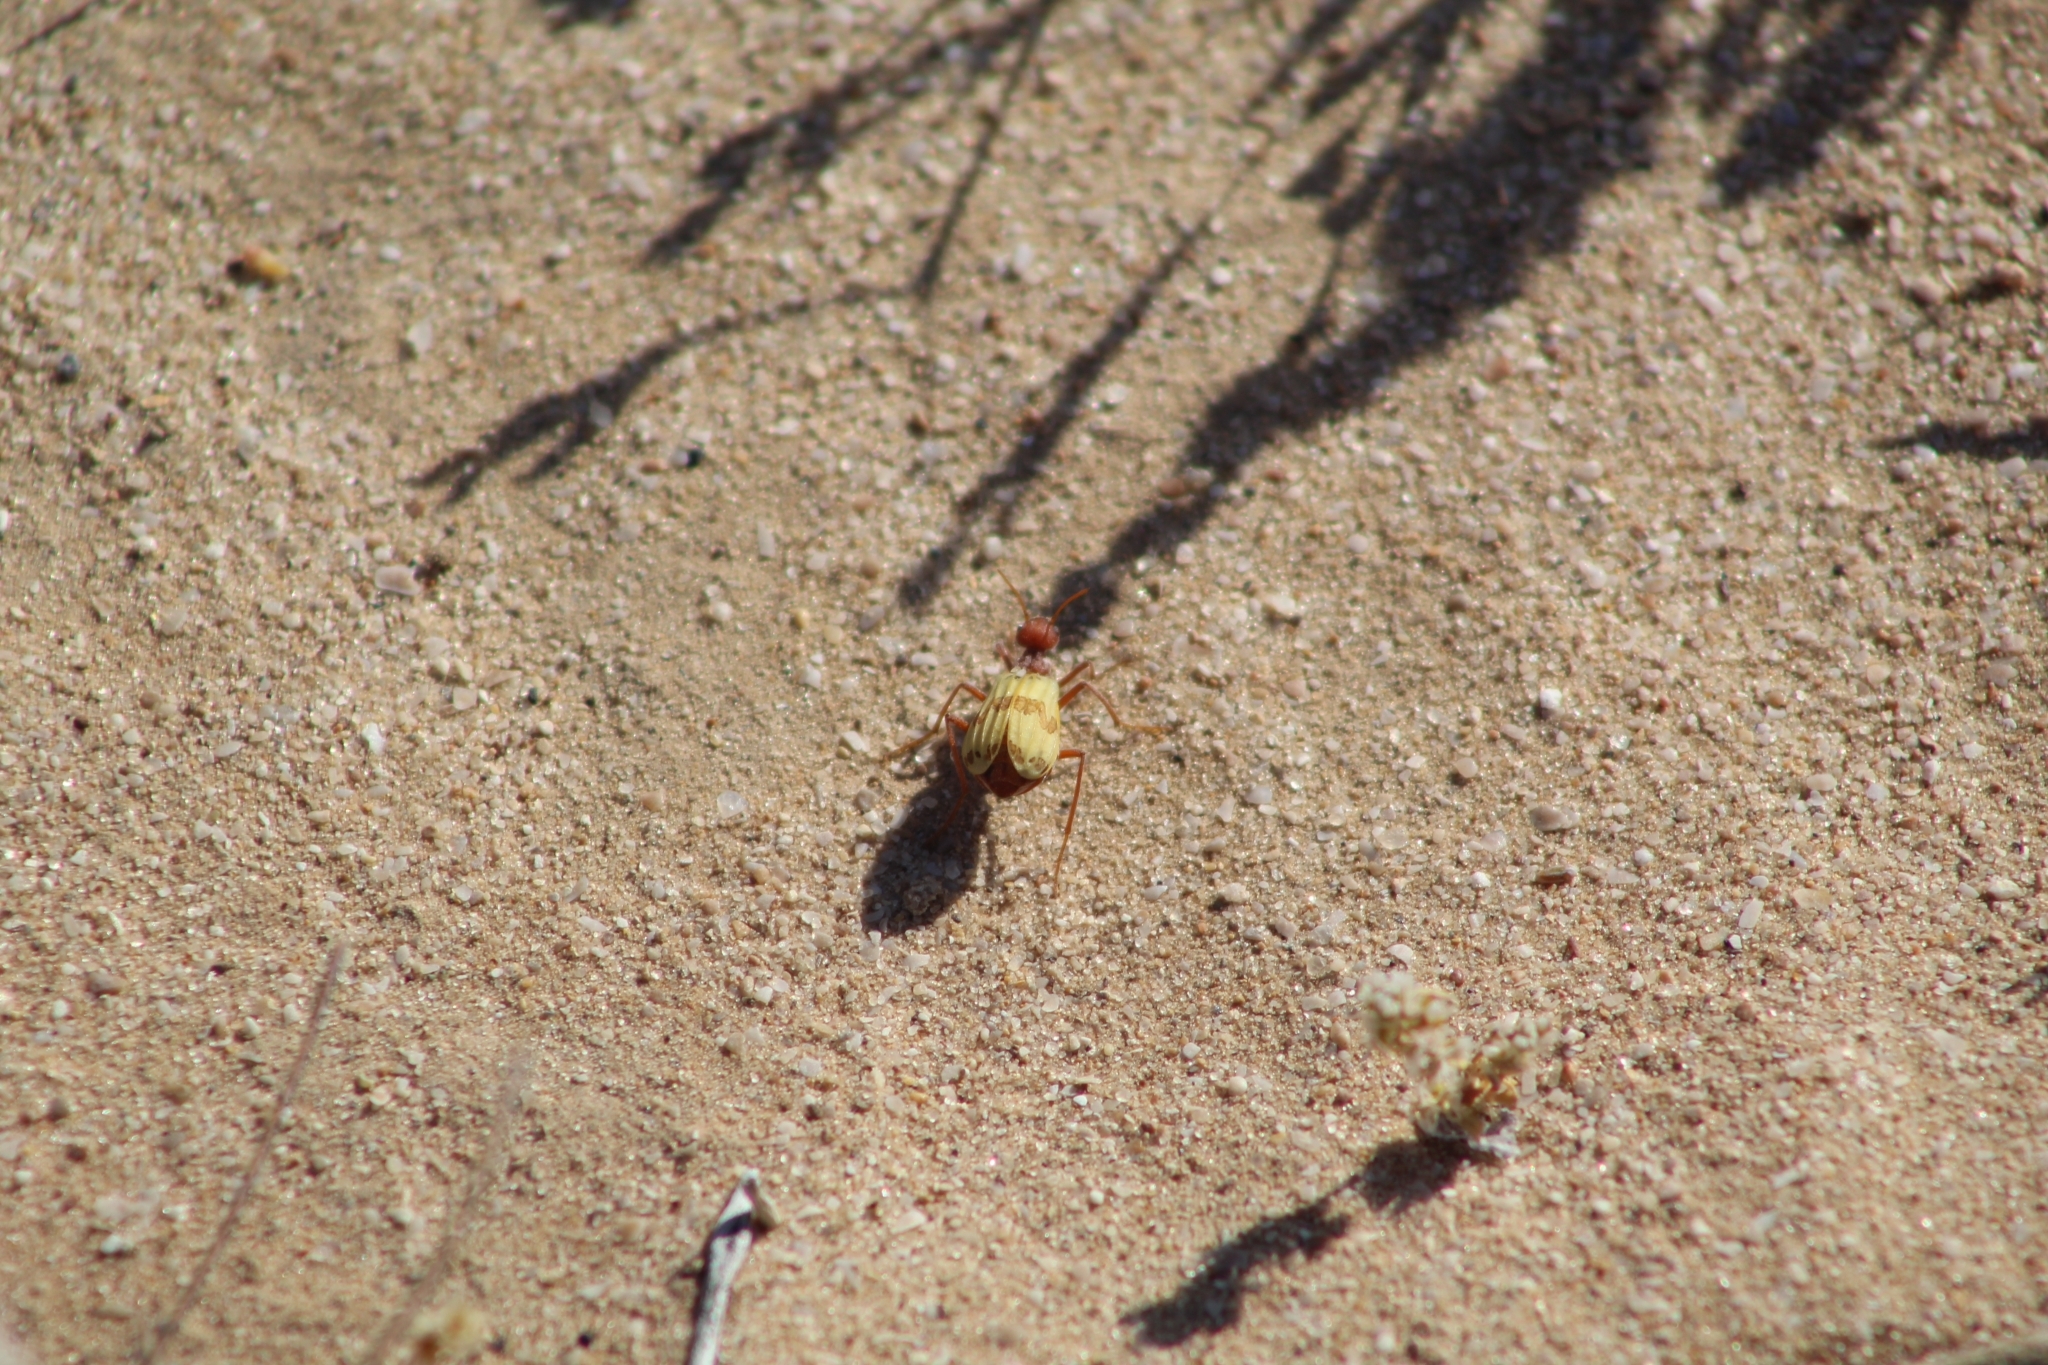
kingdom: Animalia
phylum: Arthropoda
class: Insecta
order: Coleoptera
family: Meloidae
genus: Pleuropasta
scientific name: Pleuropasta mirabilis
